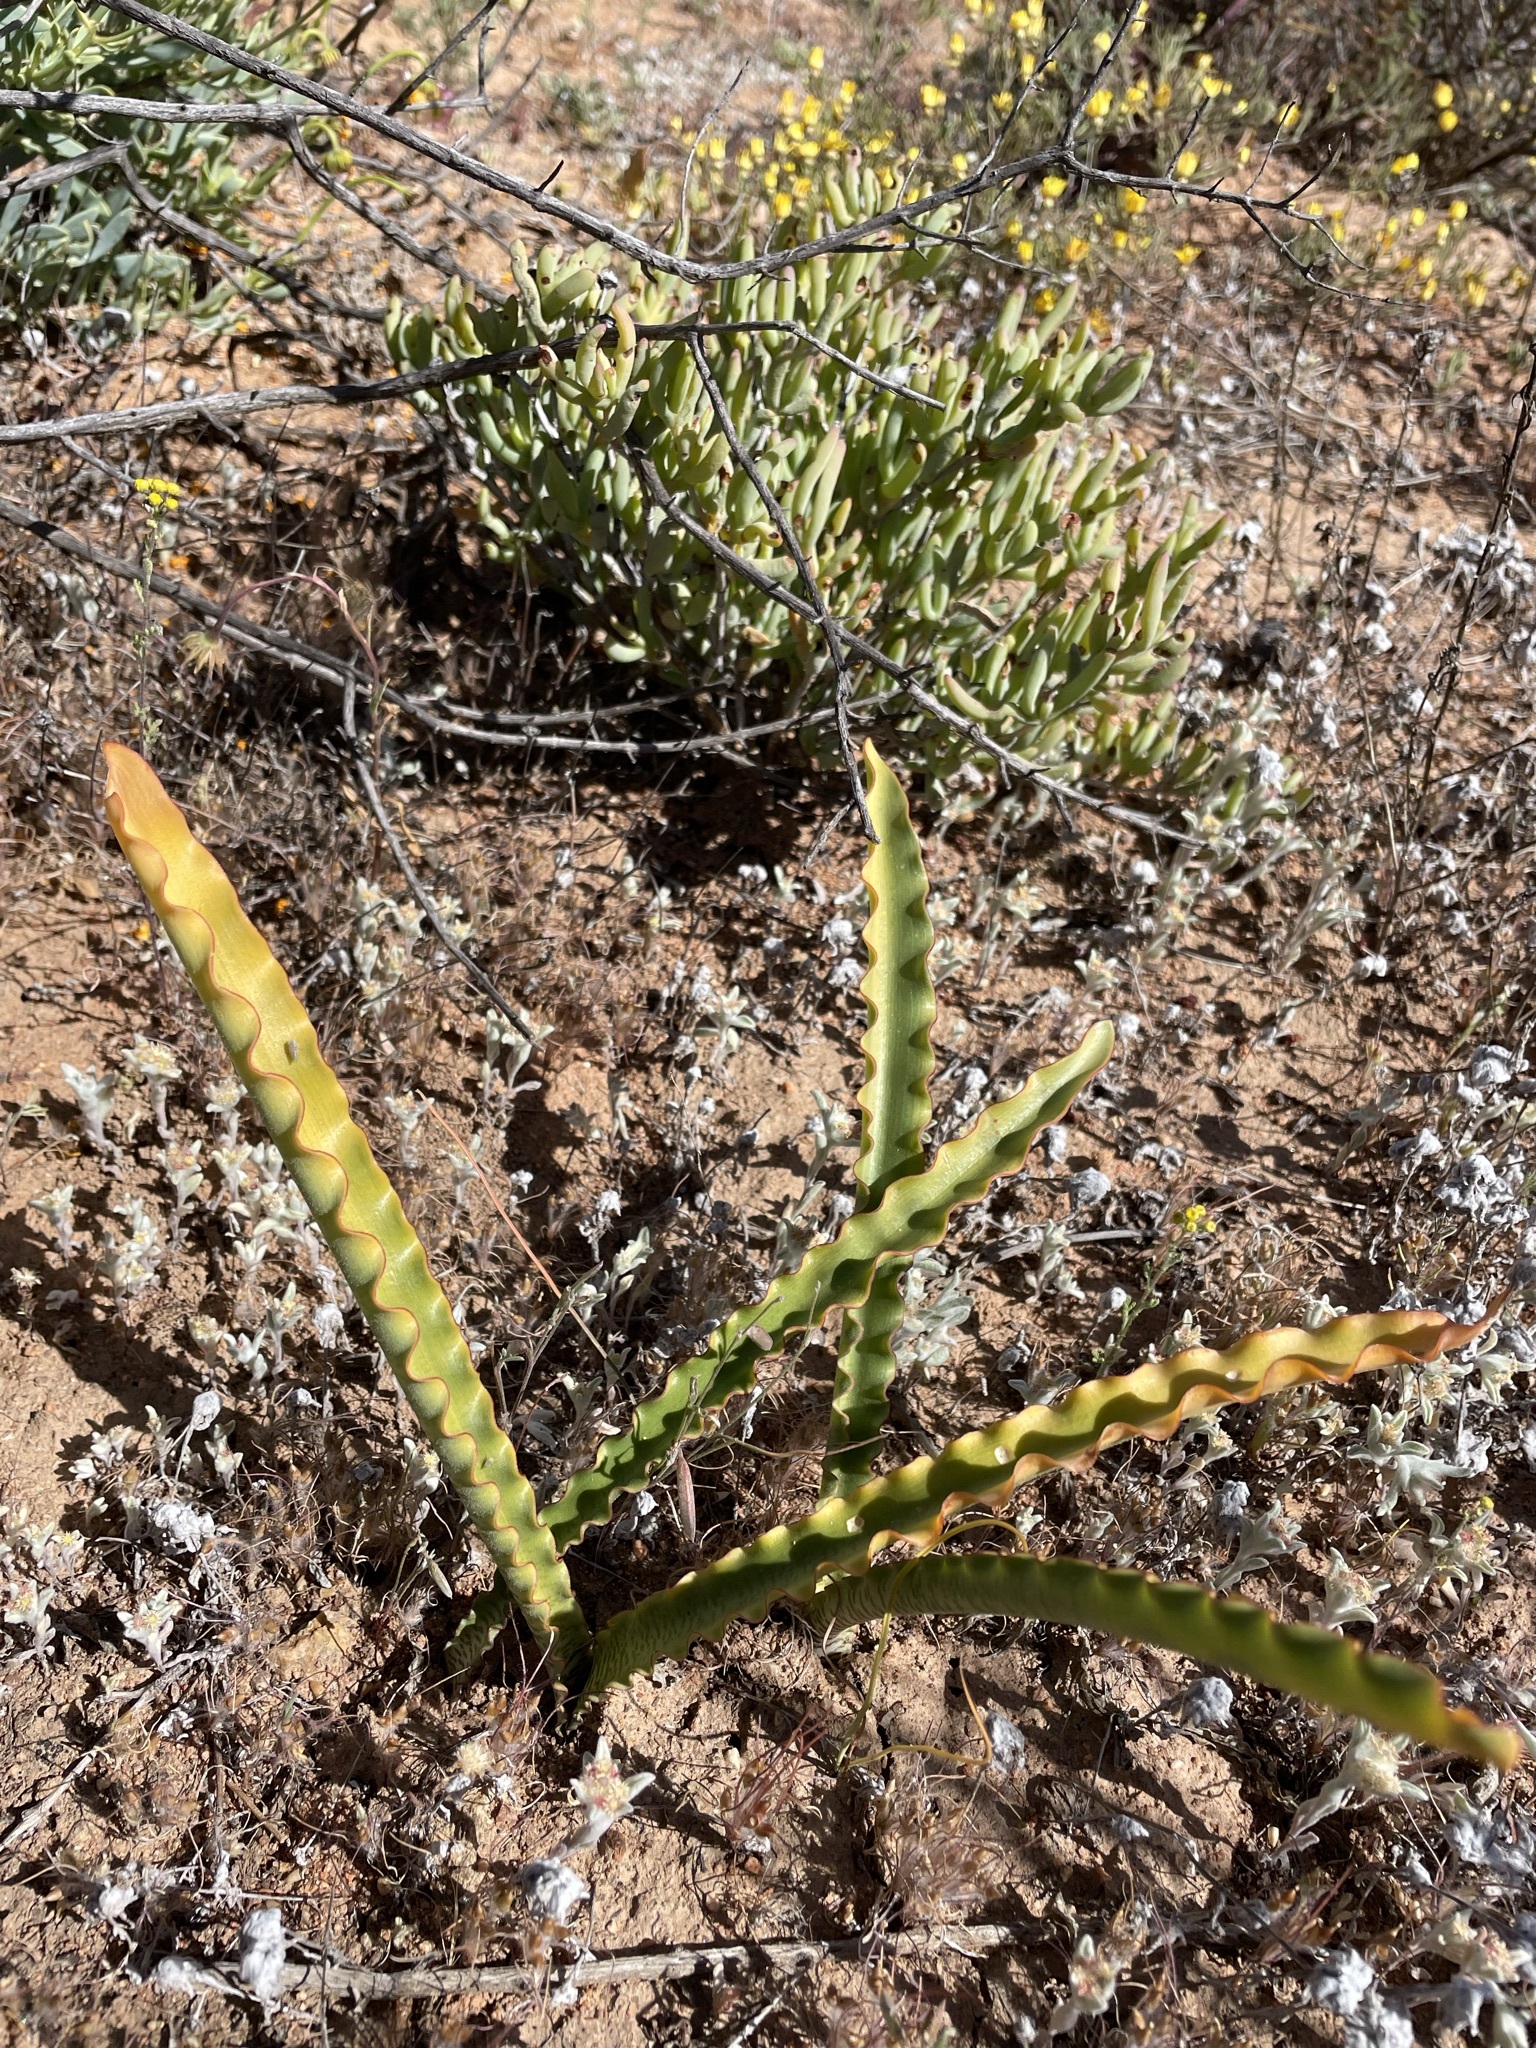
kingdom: Plantae
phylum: Tracheophyta
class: Liliopsida
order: Asparagales
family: Amaryllidaceae
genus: Haemanthus
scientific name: Haemanthus crispus
